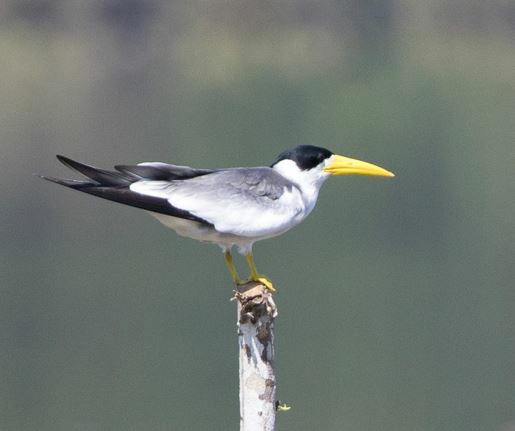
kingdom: Animalia
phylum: Chordata
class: Aves
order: Charadriiformes
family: Laridae
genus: Phaetusa
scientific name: Phaetusa simplex
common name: Large-billed tern
